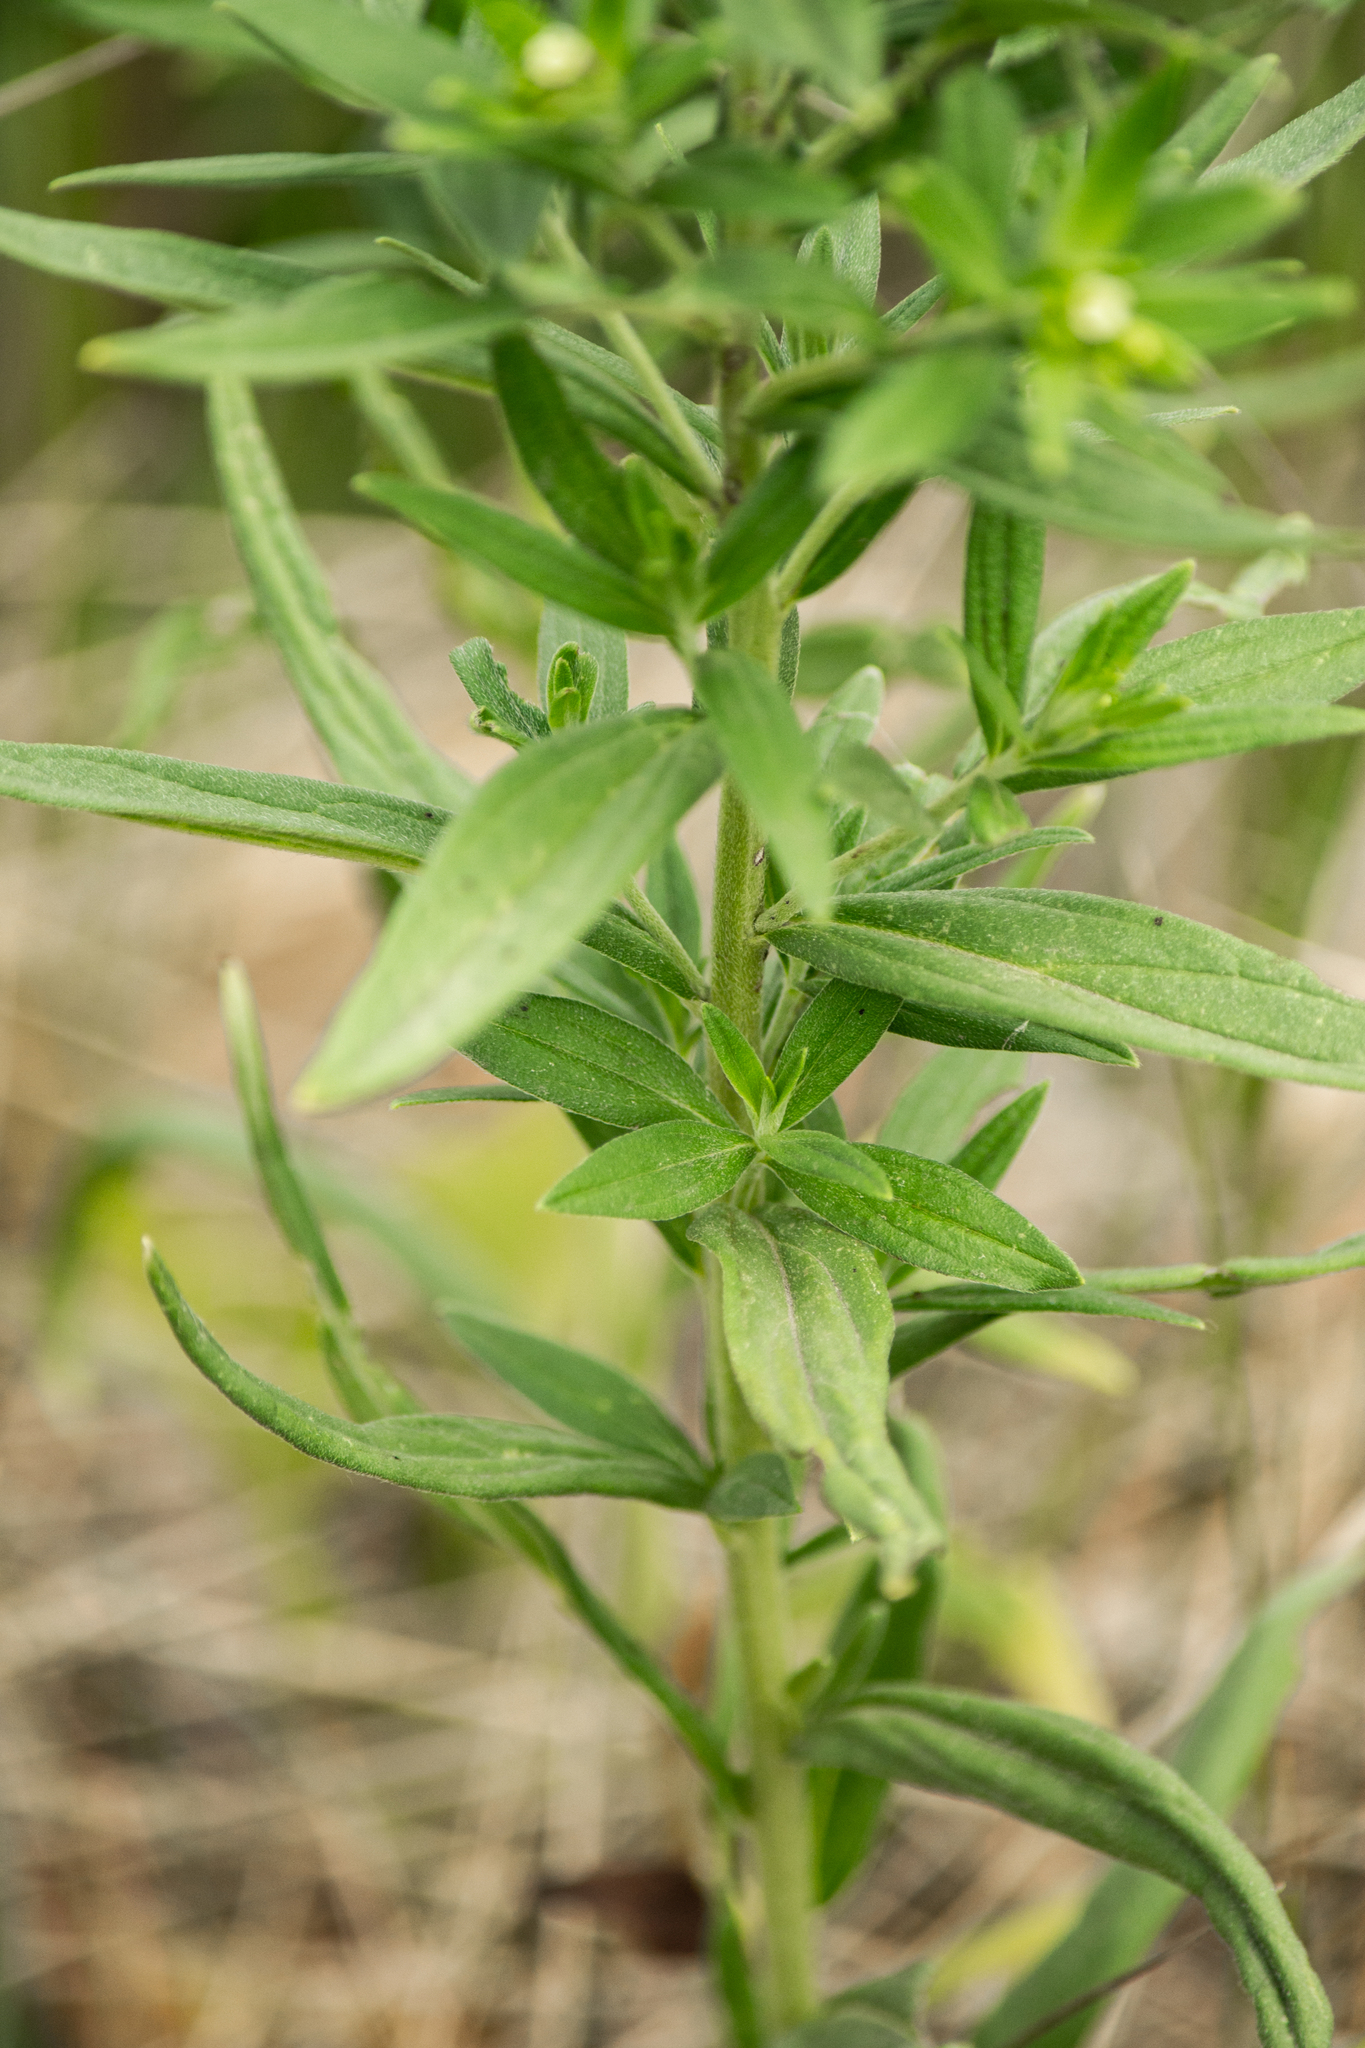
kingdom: Plantae
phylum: Tracheophyta
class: Magnoliopsida
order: Boraginales
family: Boraginaceae
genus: Lithospermum
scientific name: Lithospermum officinale
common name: Common gromwell
